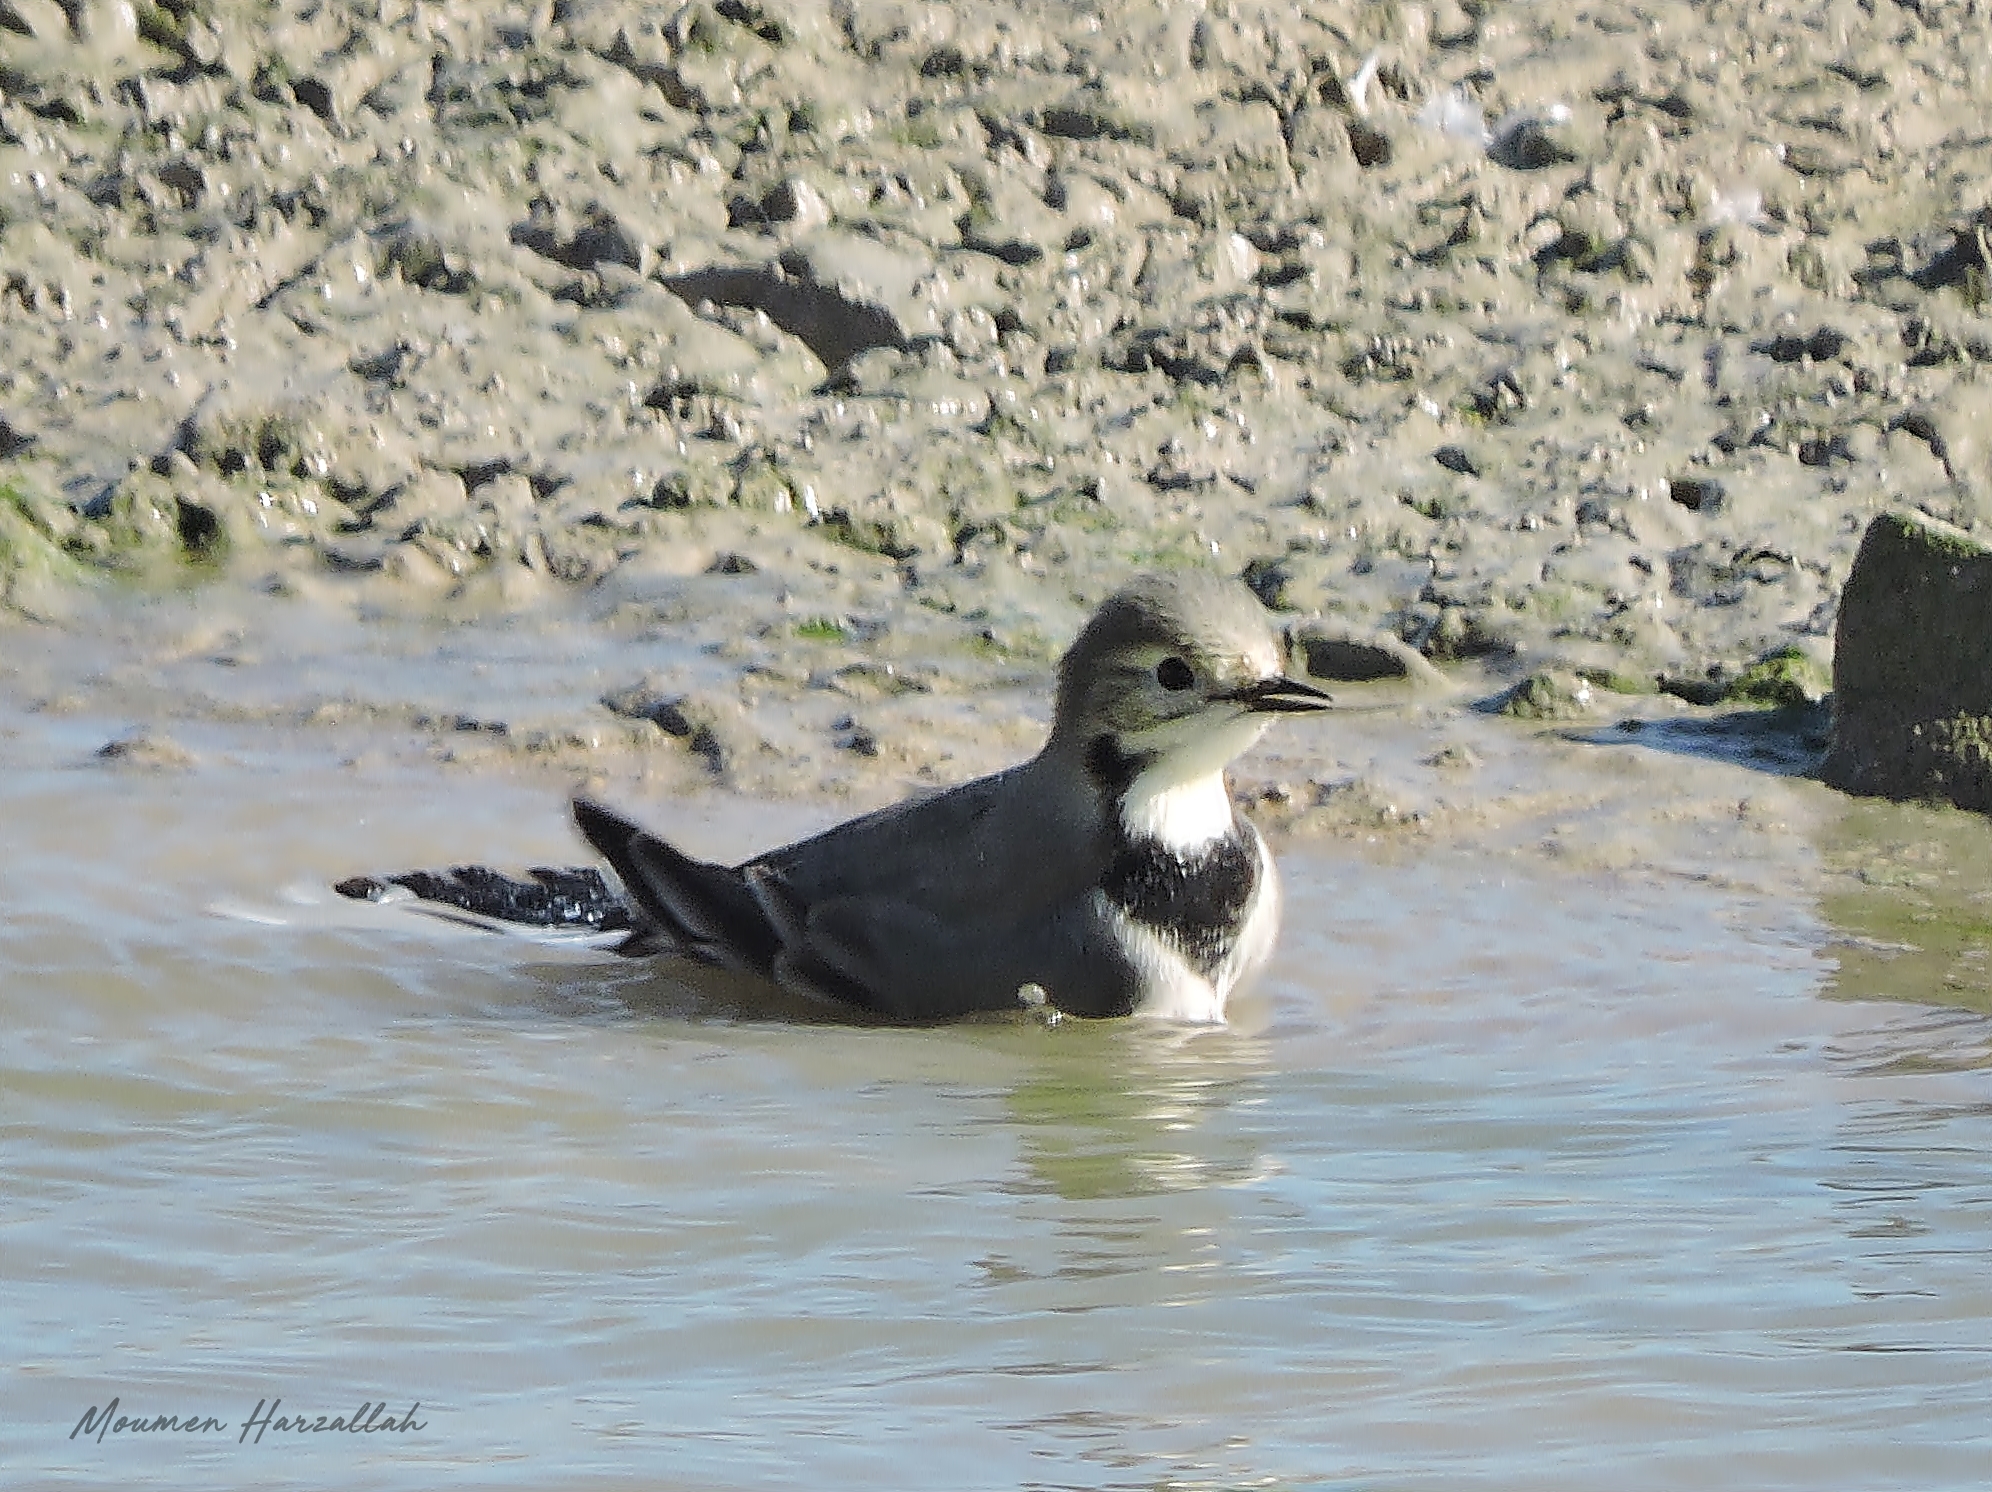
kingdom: Animalia
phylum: Chordata
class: Aves
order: Passeriformes
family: Motacillidae
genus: Motacilla
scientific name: Motacilla alba
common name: White wagtail
